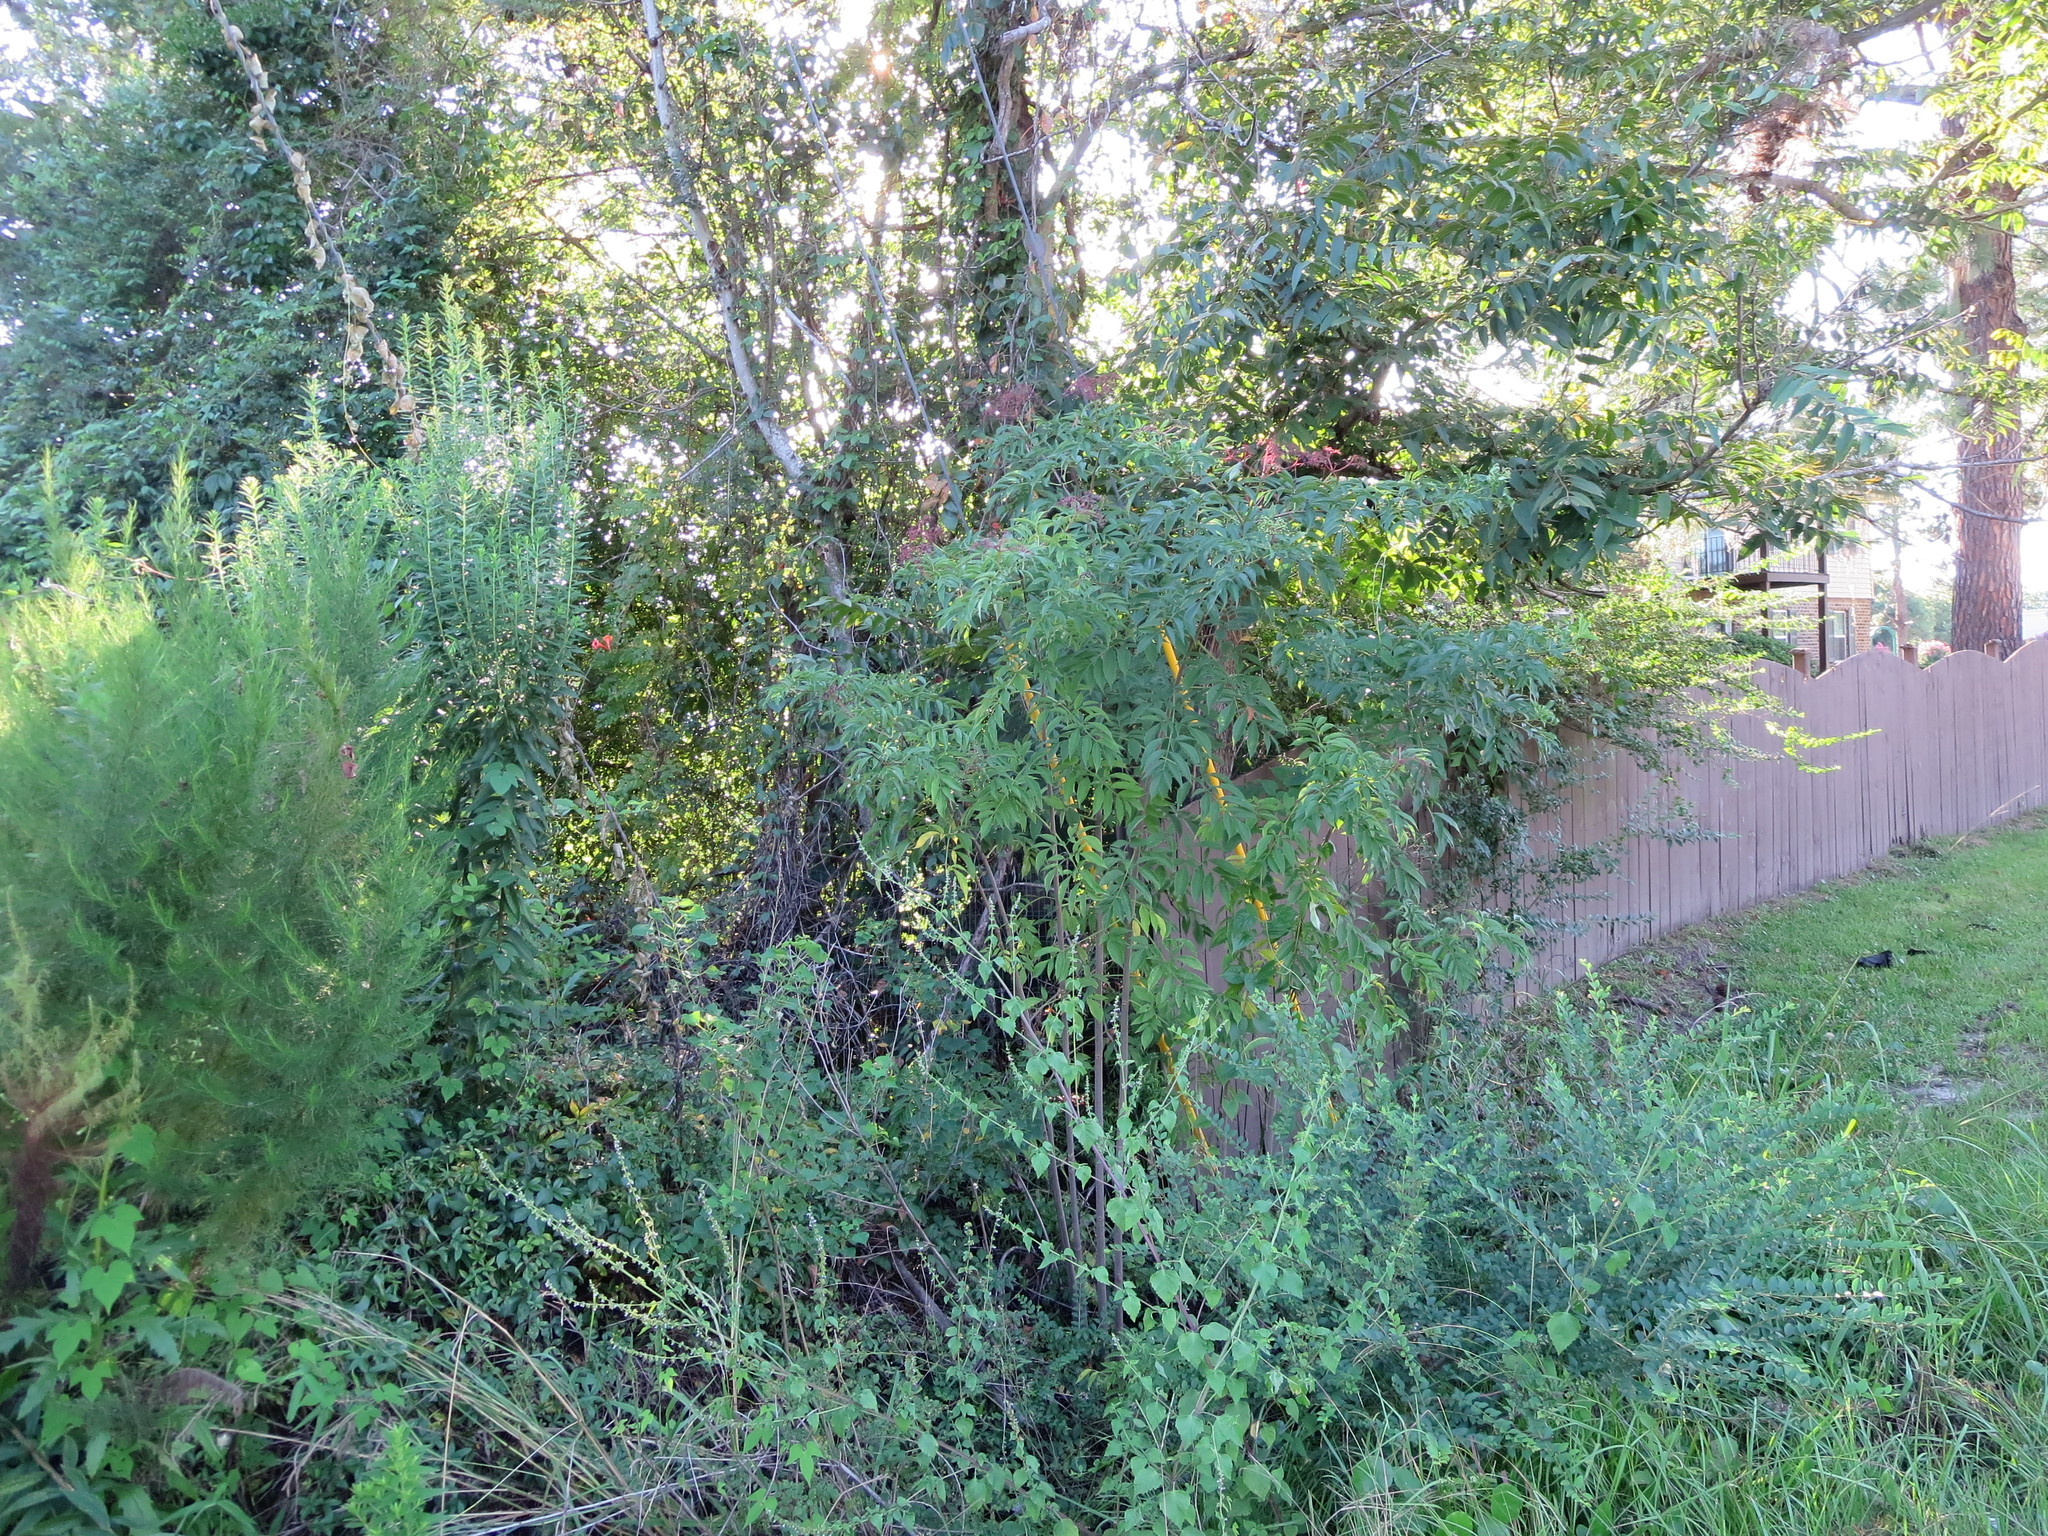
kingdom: Plantae
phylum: Tracheophyta
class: Magnoliopsida
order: Asterales
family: Asteraceae
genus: Eupatorium
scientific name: Eupatorium capillifolium
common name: Dog-fennel
